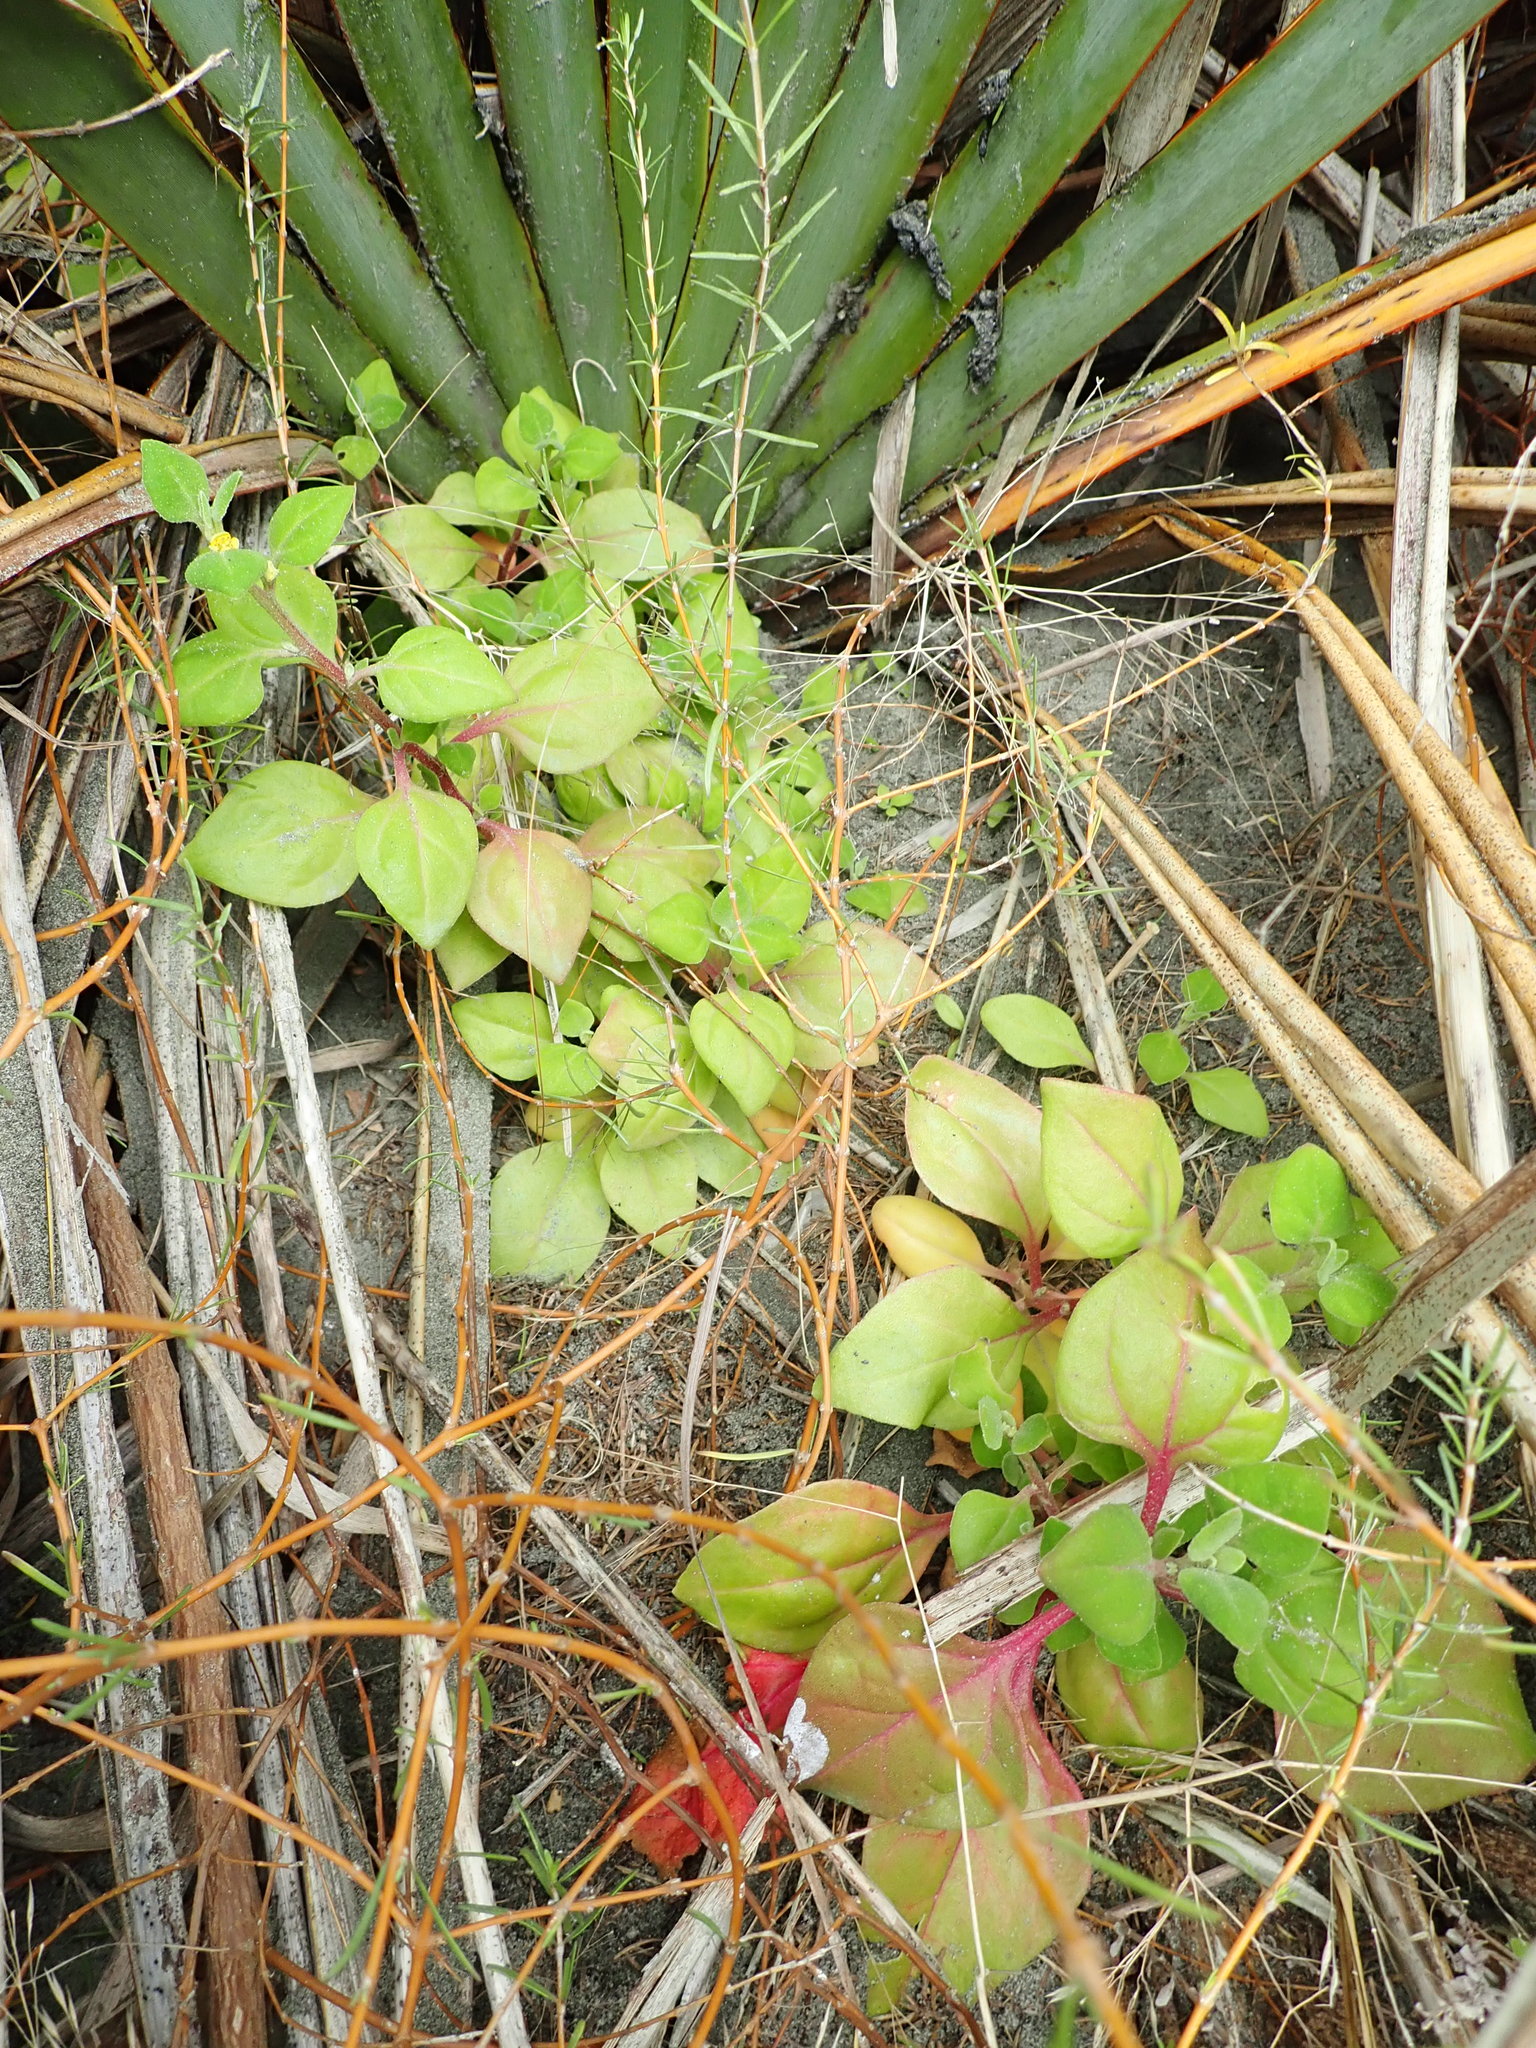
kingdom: Plantae
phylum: Tracheophyta
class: Magnoliopsida
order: Caryophyllales
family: Aizoaceae
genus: Tetragonia
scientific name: Tetragonia implexicoma
